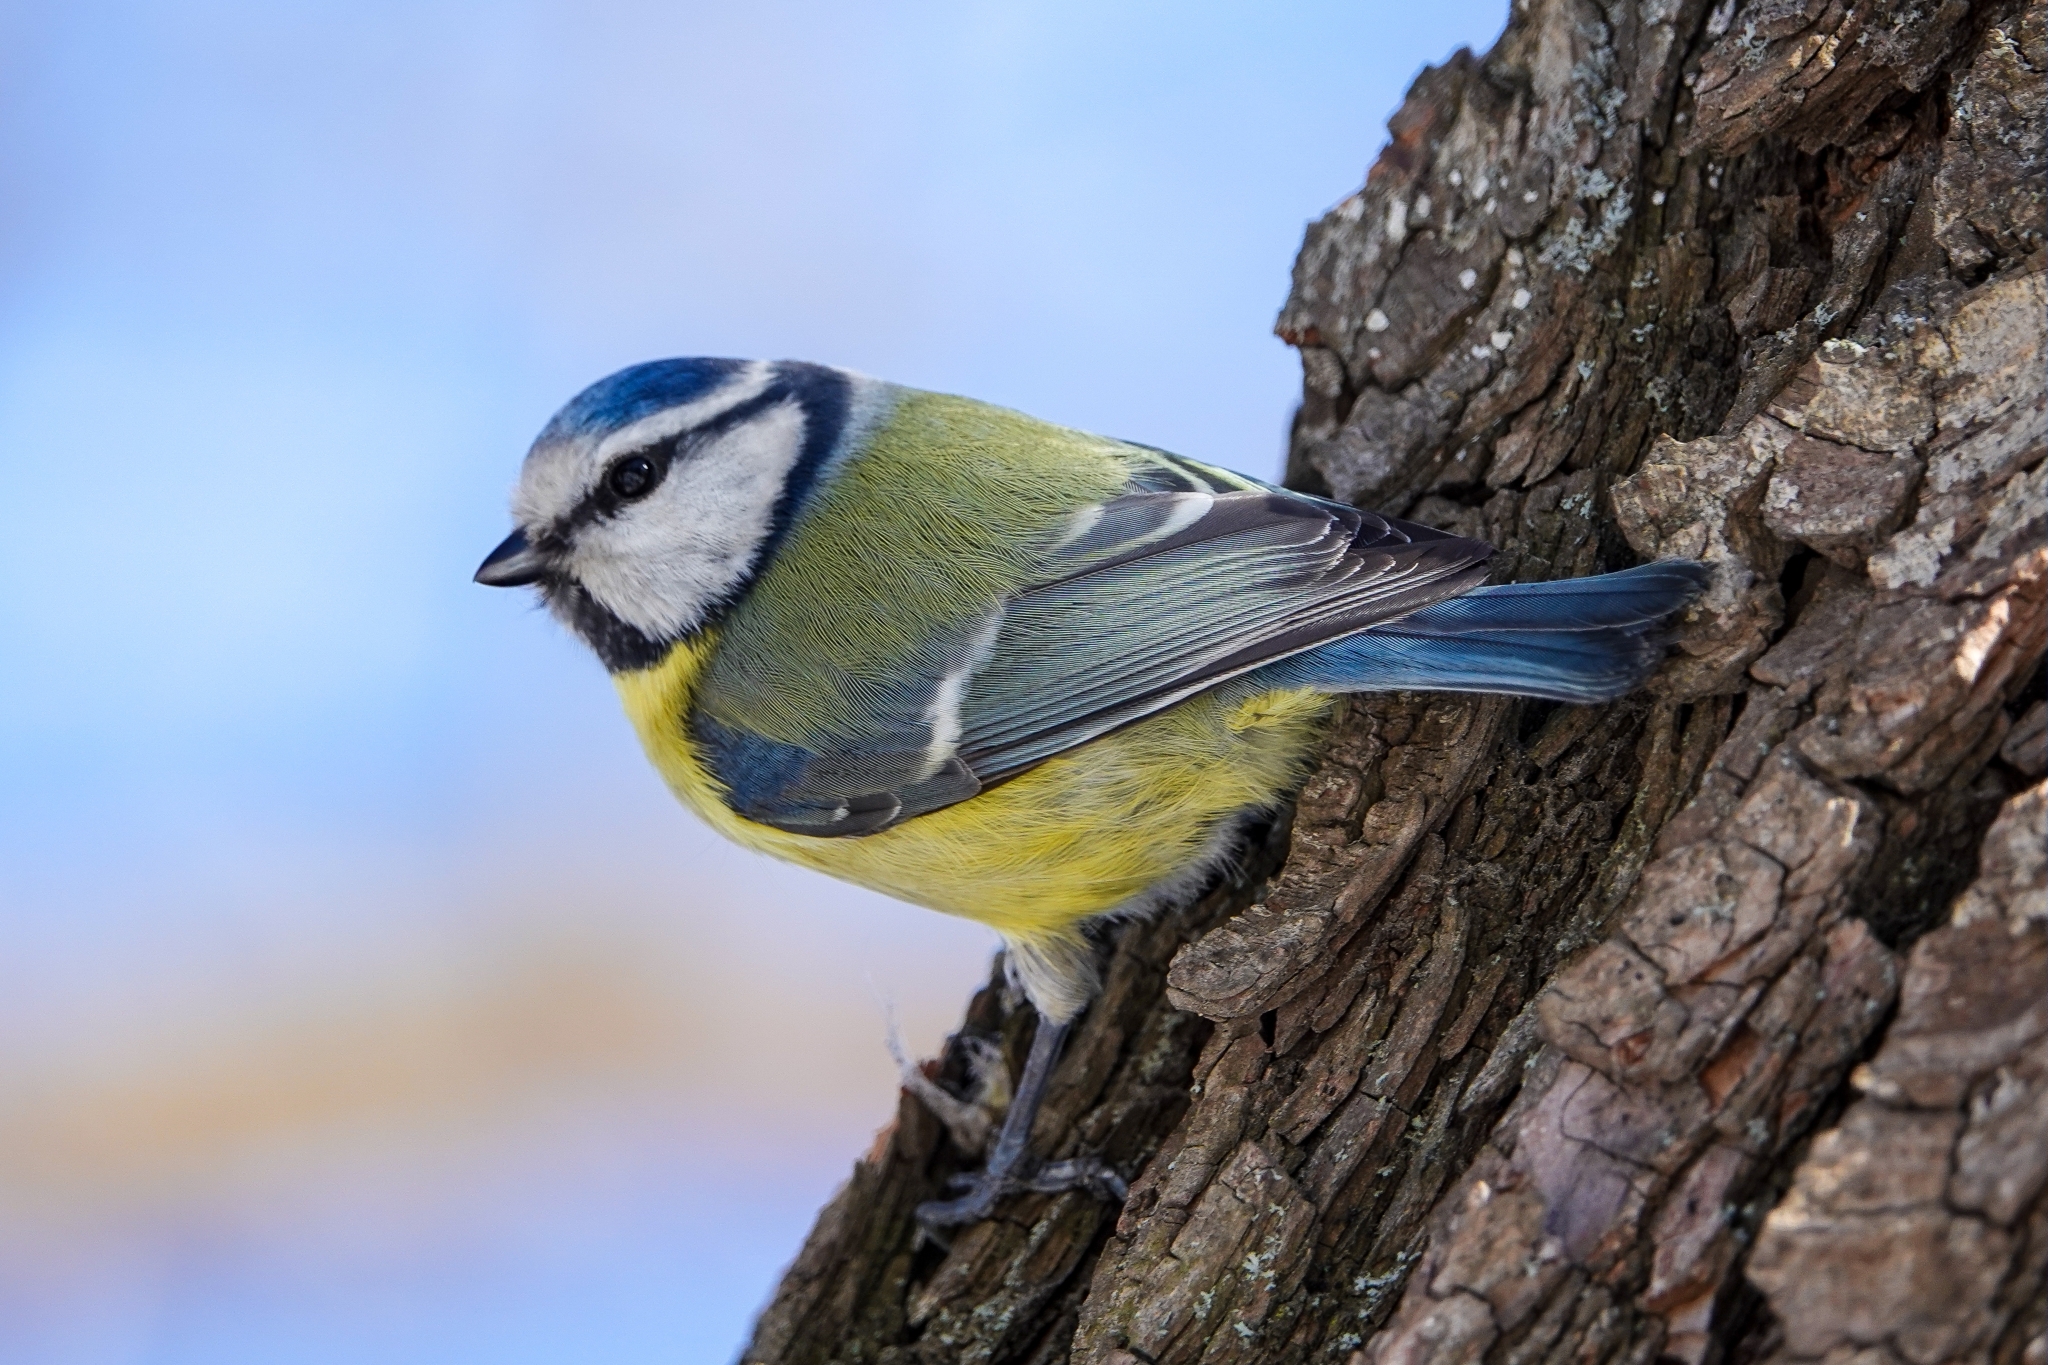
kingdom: Animalia
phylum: Chordata
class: Aves
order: Passeriformes
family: Paridae
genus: Cyanistes
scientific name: Cyanistes caeruleus
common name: Eurasian blue tit
